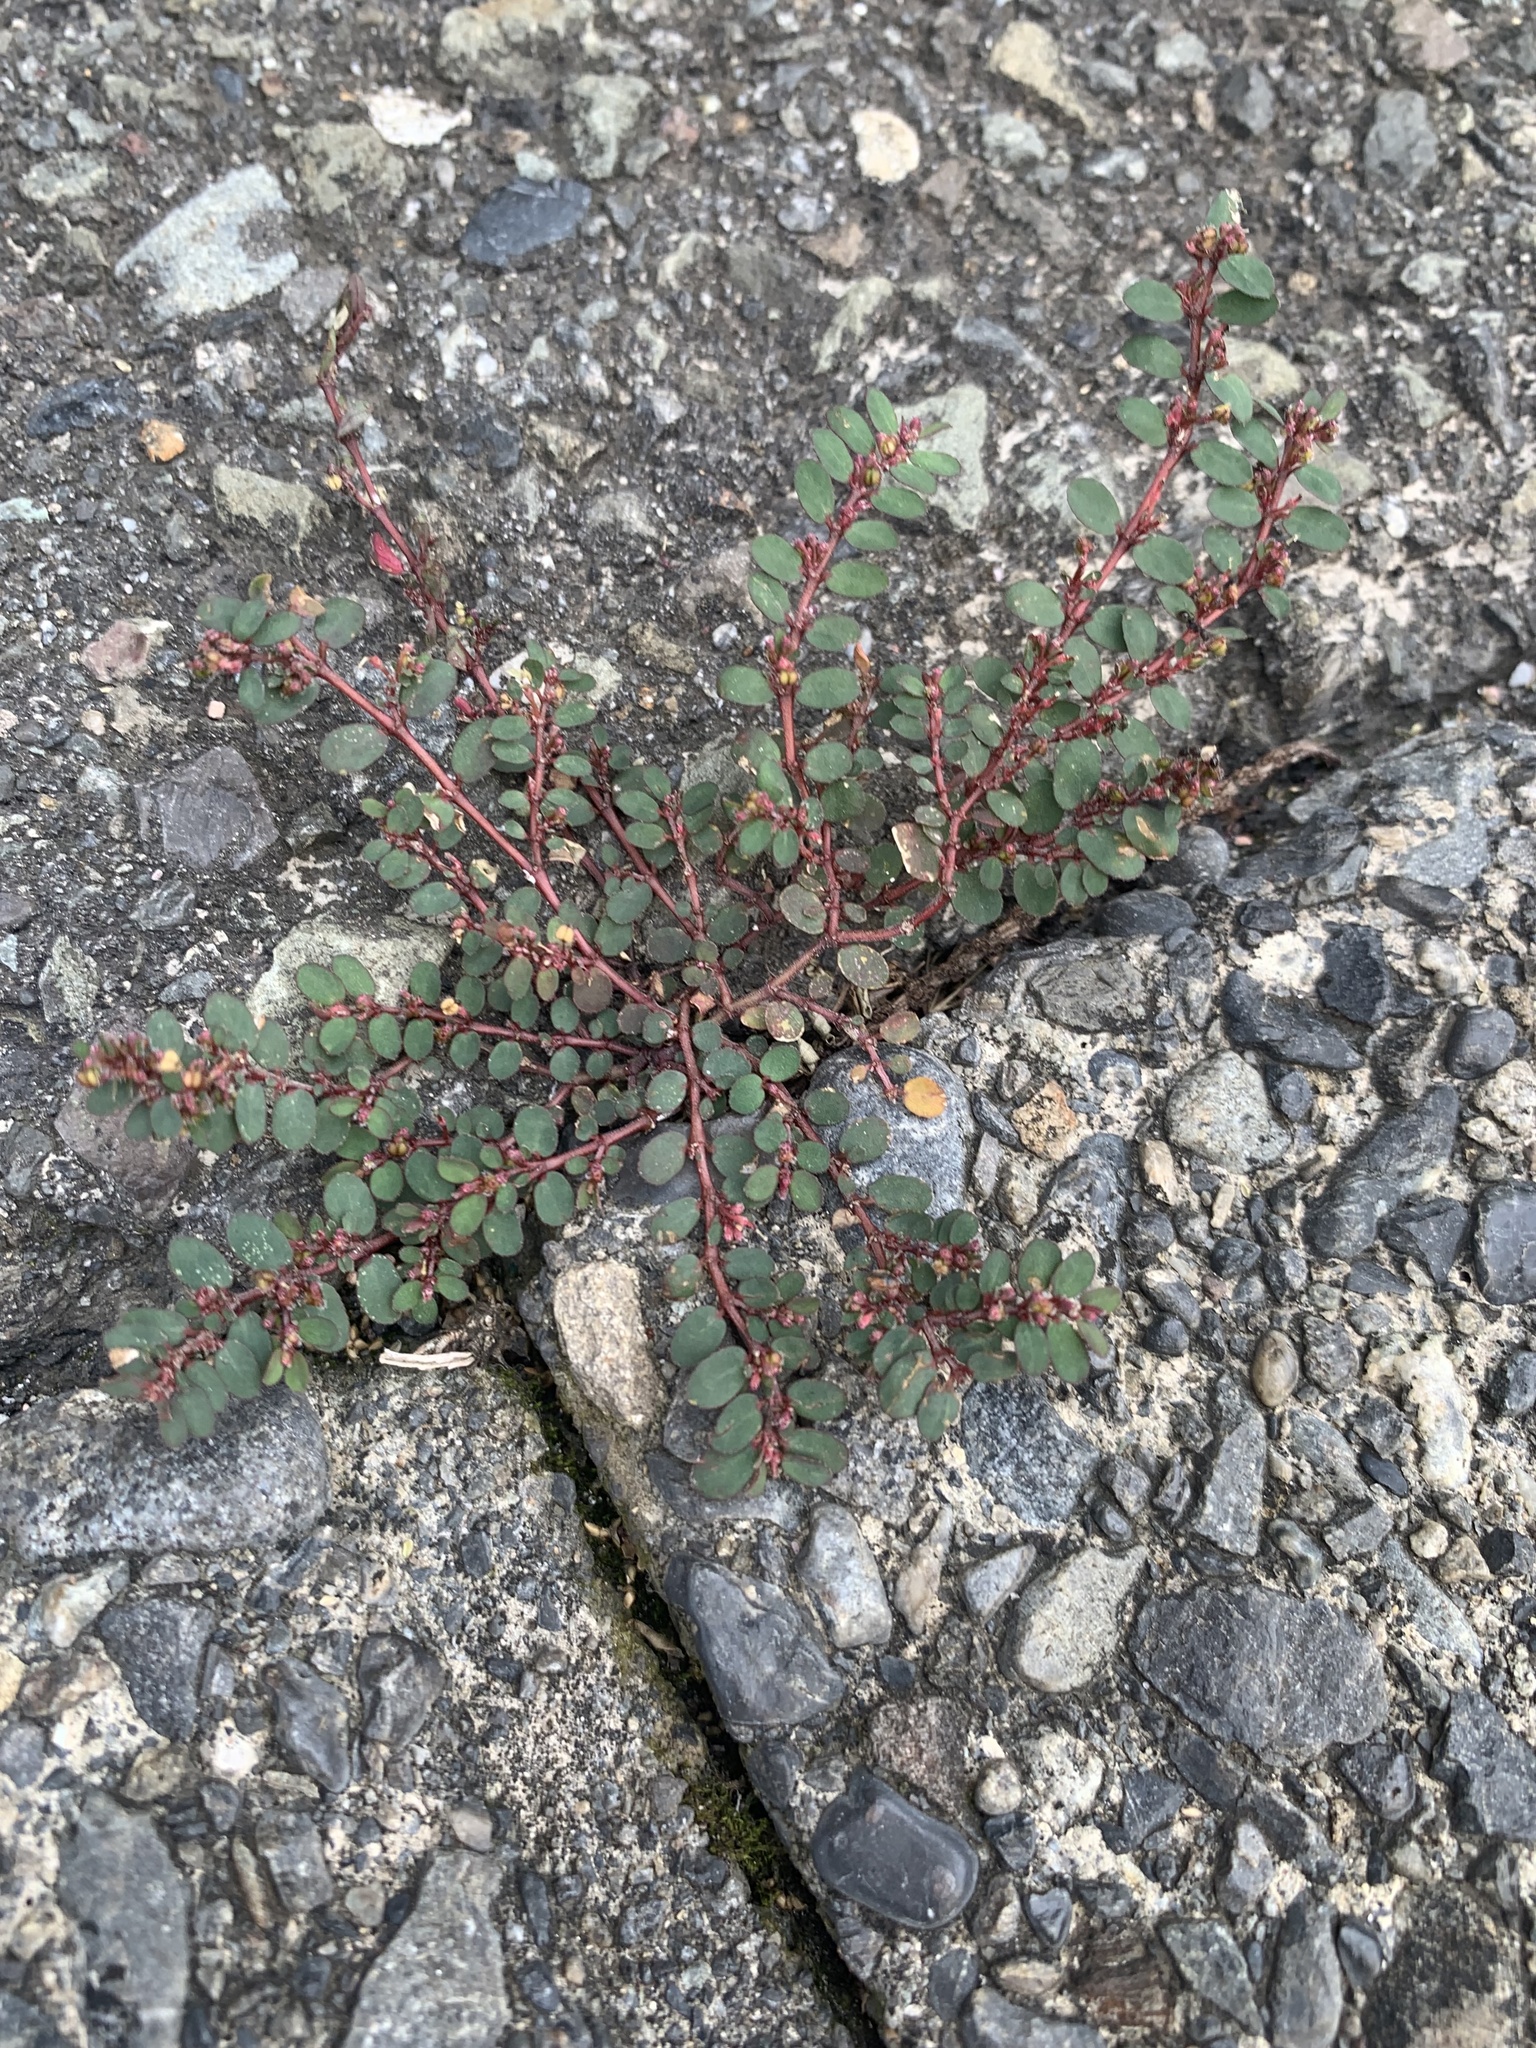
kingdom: Plantae
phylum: Tracheophyta
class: Magnoliopsida
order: Malpighiales
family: Euphorbiaceae
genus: Euphorbia
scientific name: Euphorbia prostrata
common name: Prostrate sandmat
